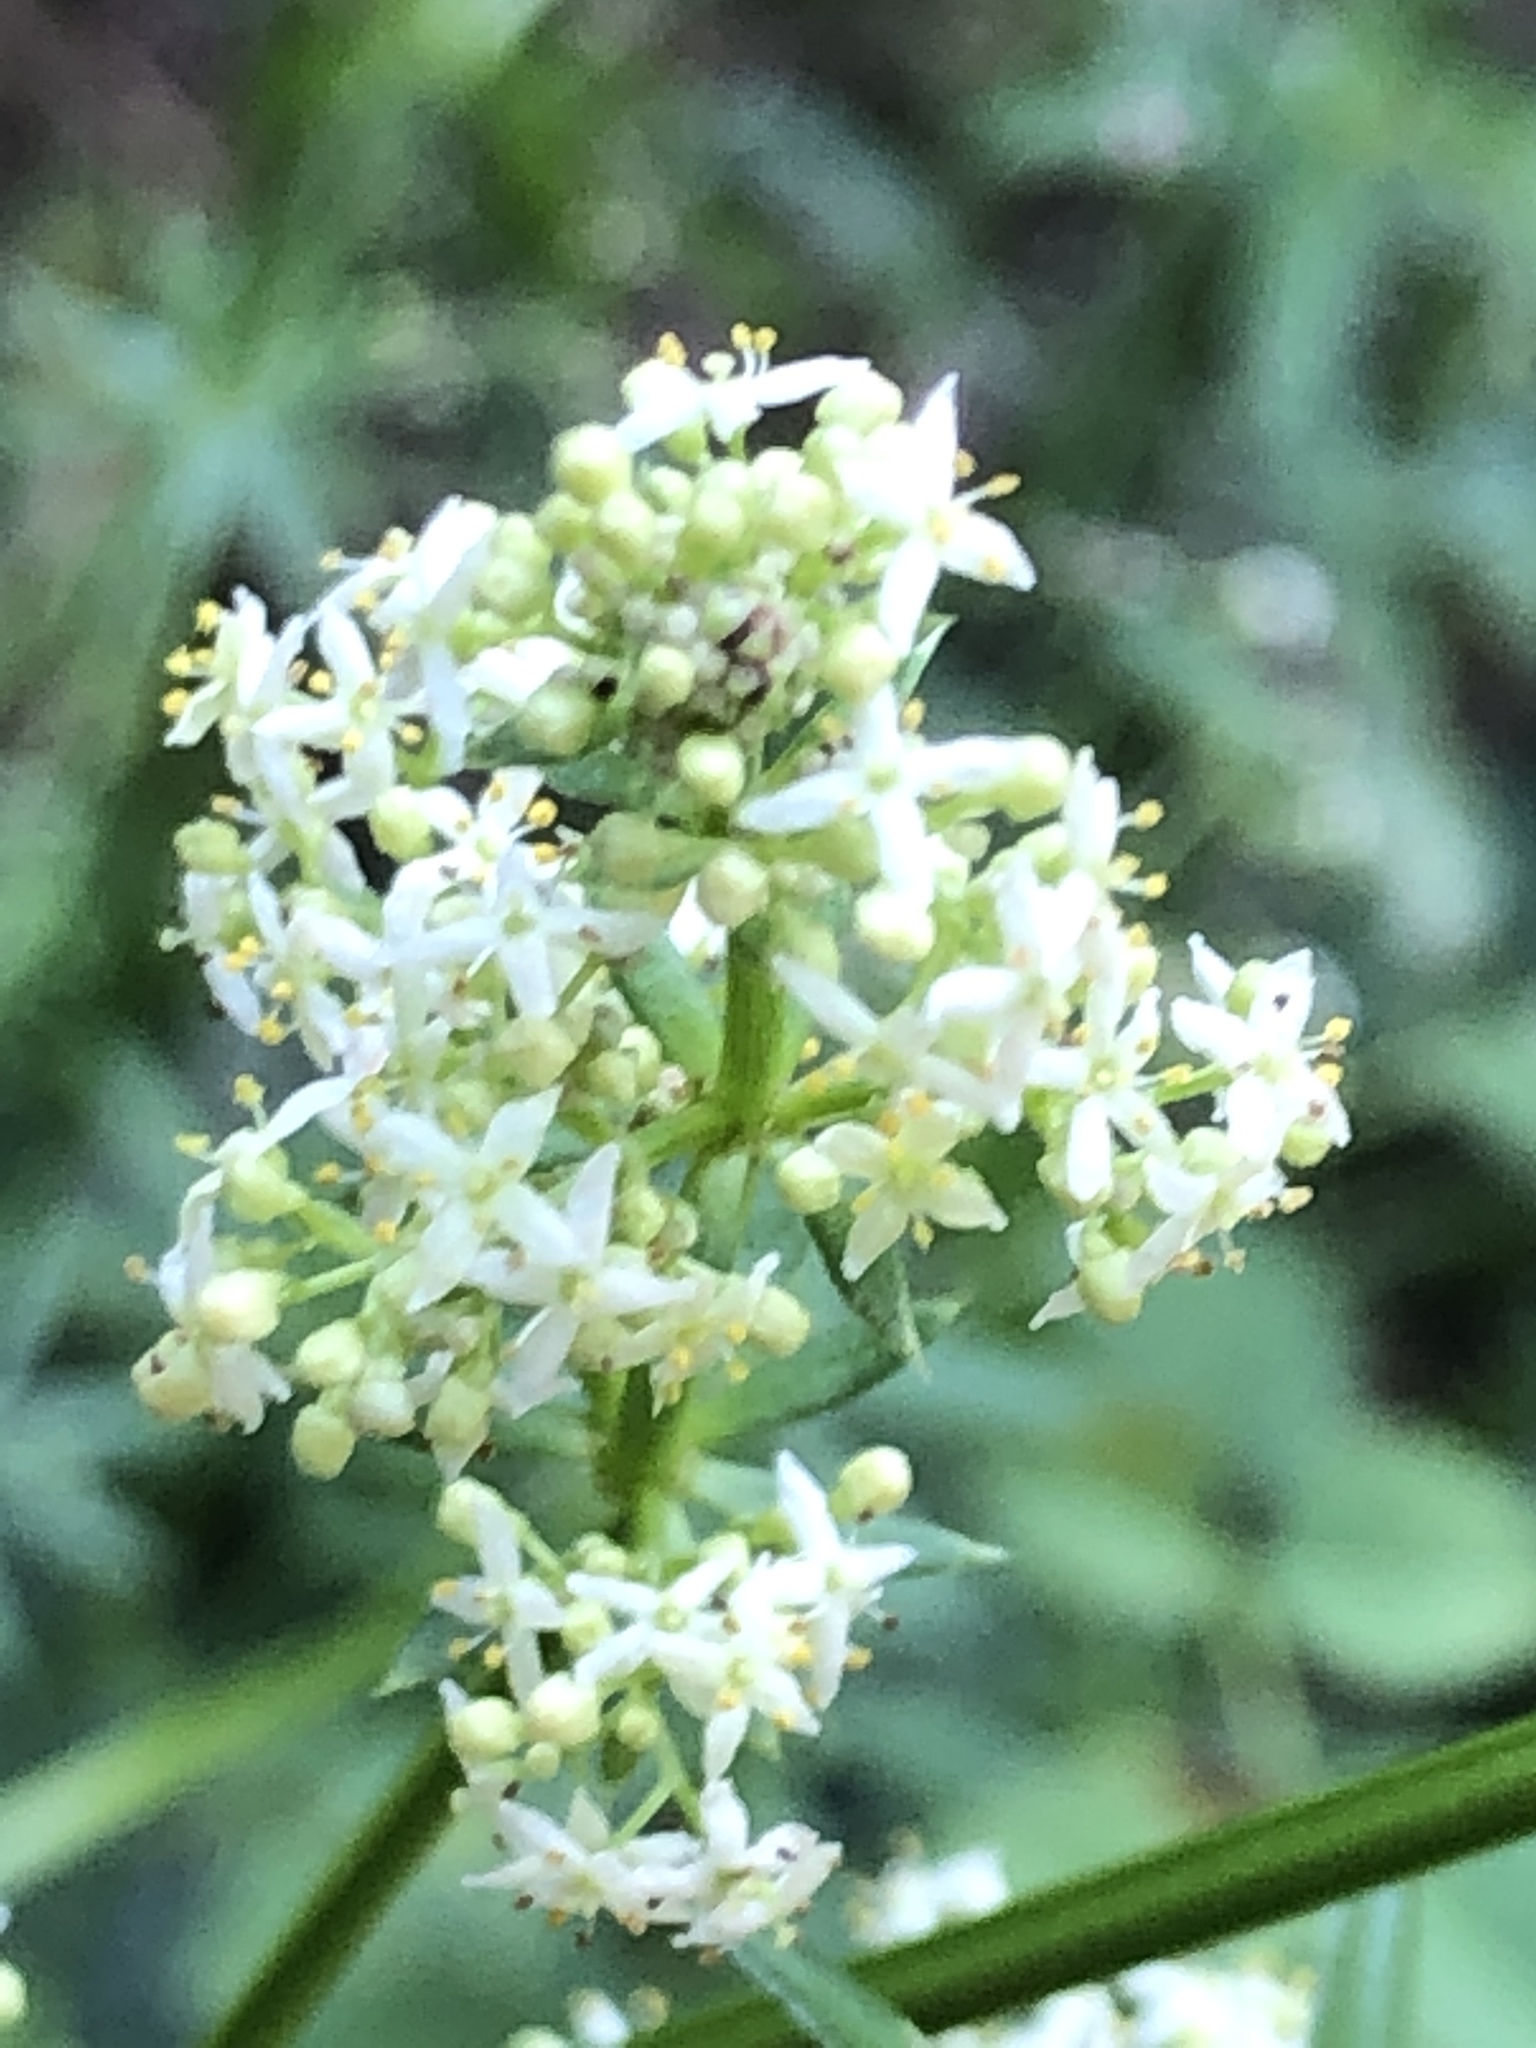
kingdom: Plantae
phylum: Tracheophyta
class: Magnoliopsida
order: Gentianales
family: Rubiaceae
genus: Galium
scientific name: Galium album
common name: White bedstraw
